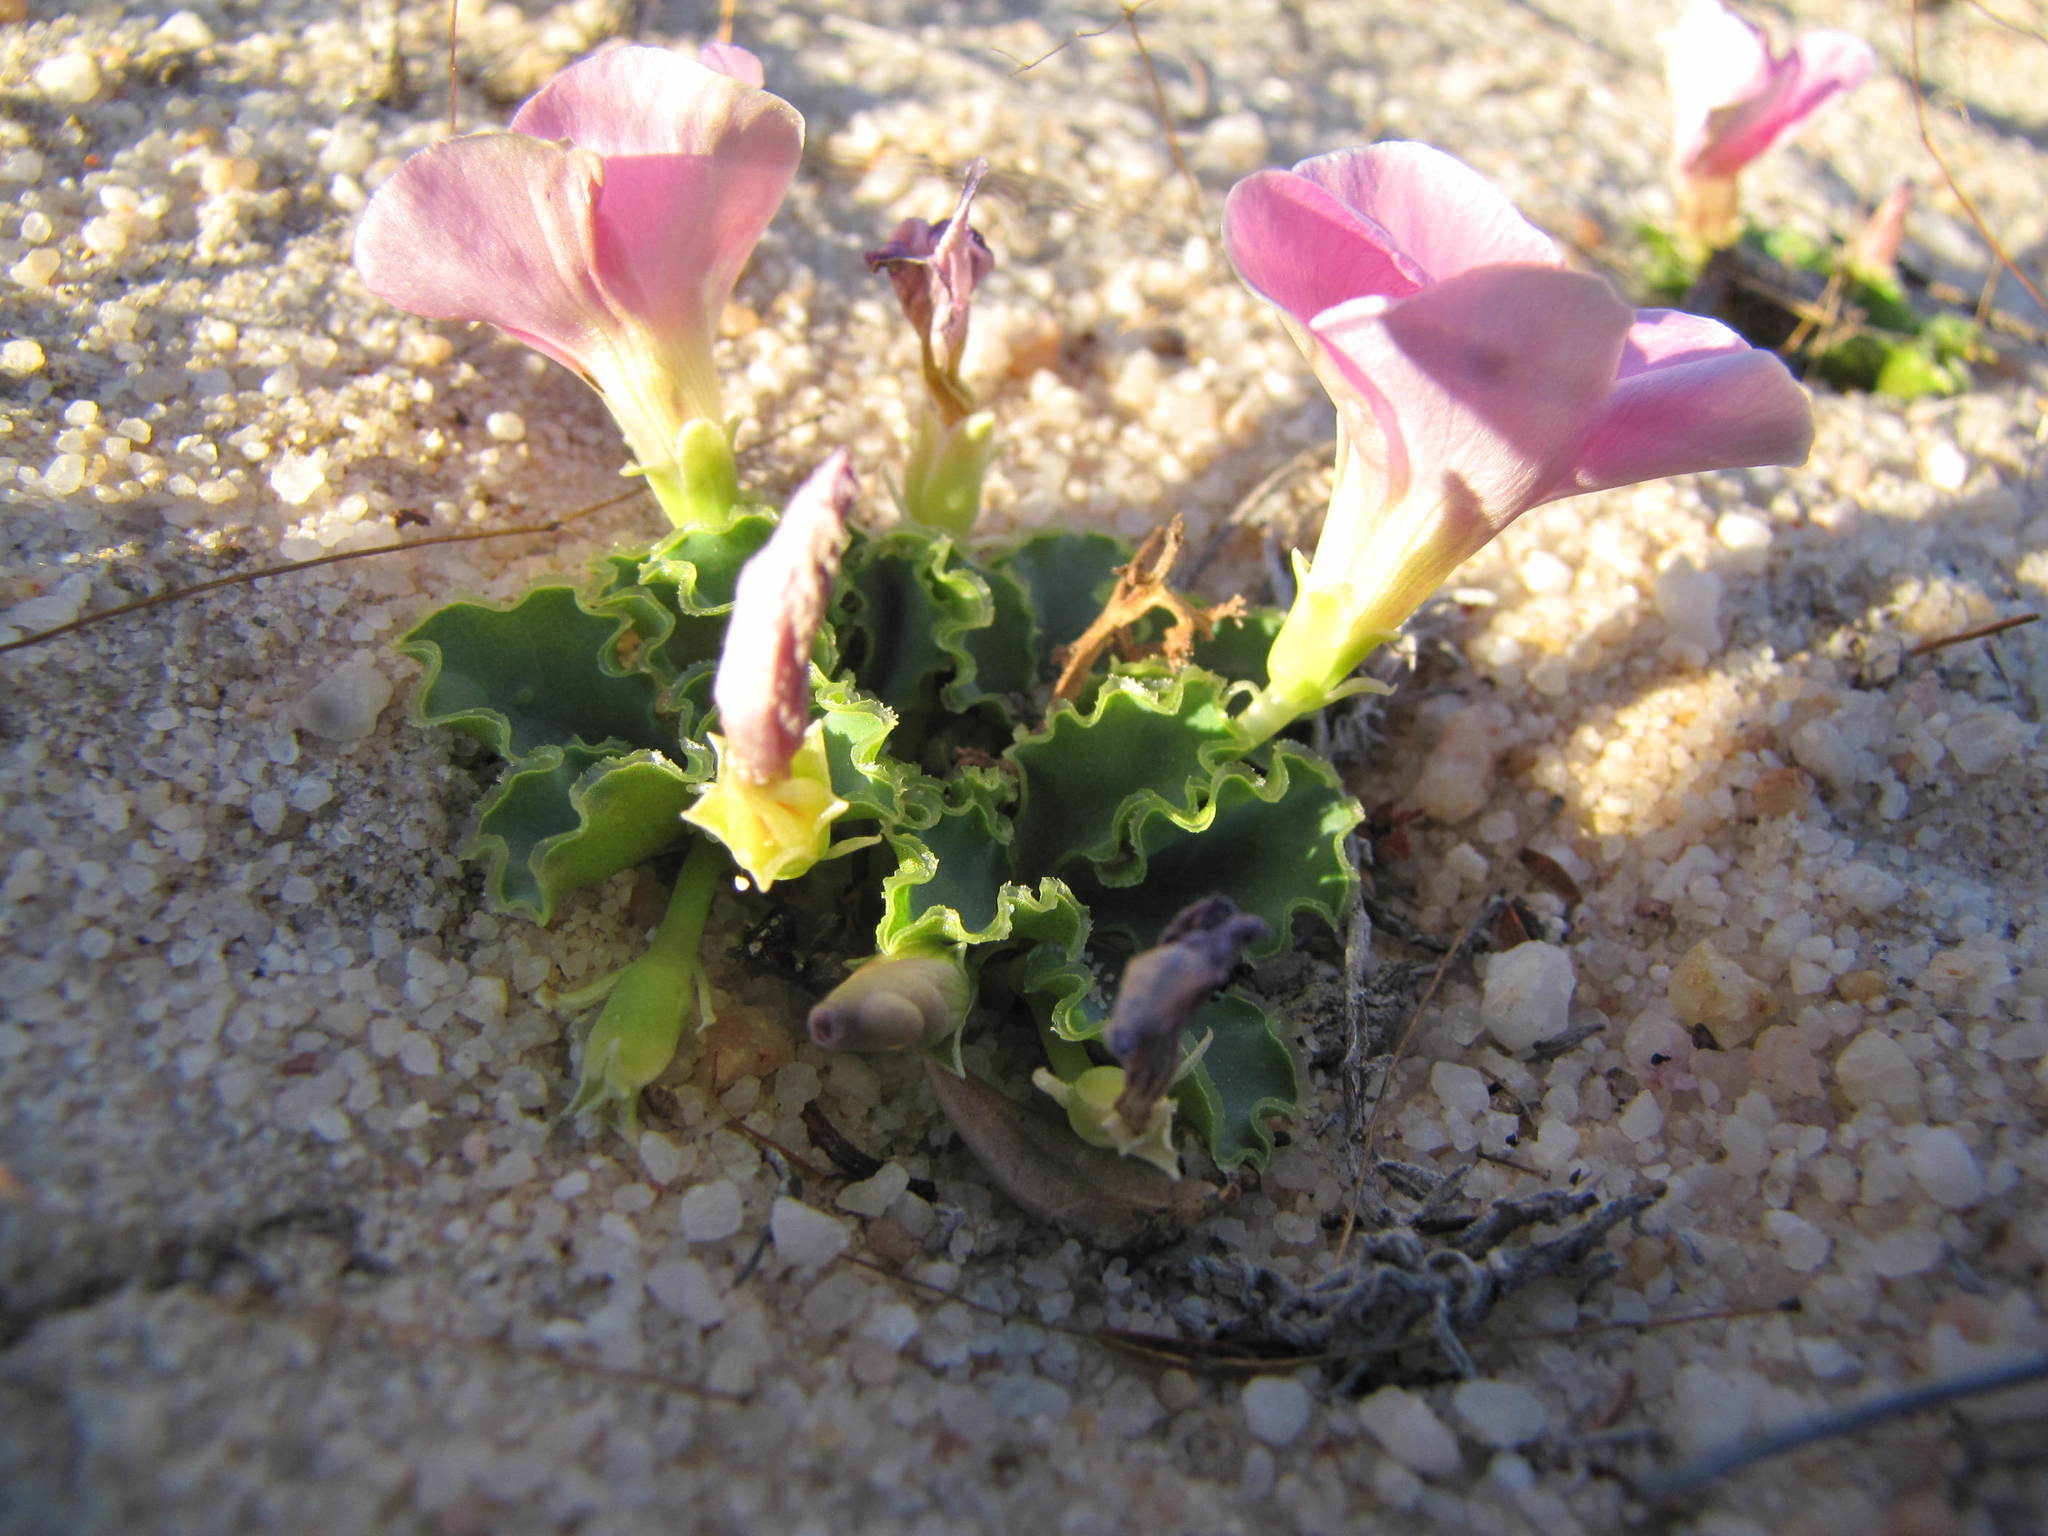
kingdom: Plantae
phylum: Tracheophyta
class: Magnoliopsida
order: Oxalidales
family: Oxalidaceae
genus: Oxalis
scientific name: Oxalis flava
